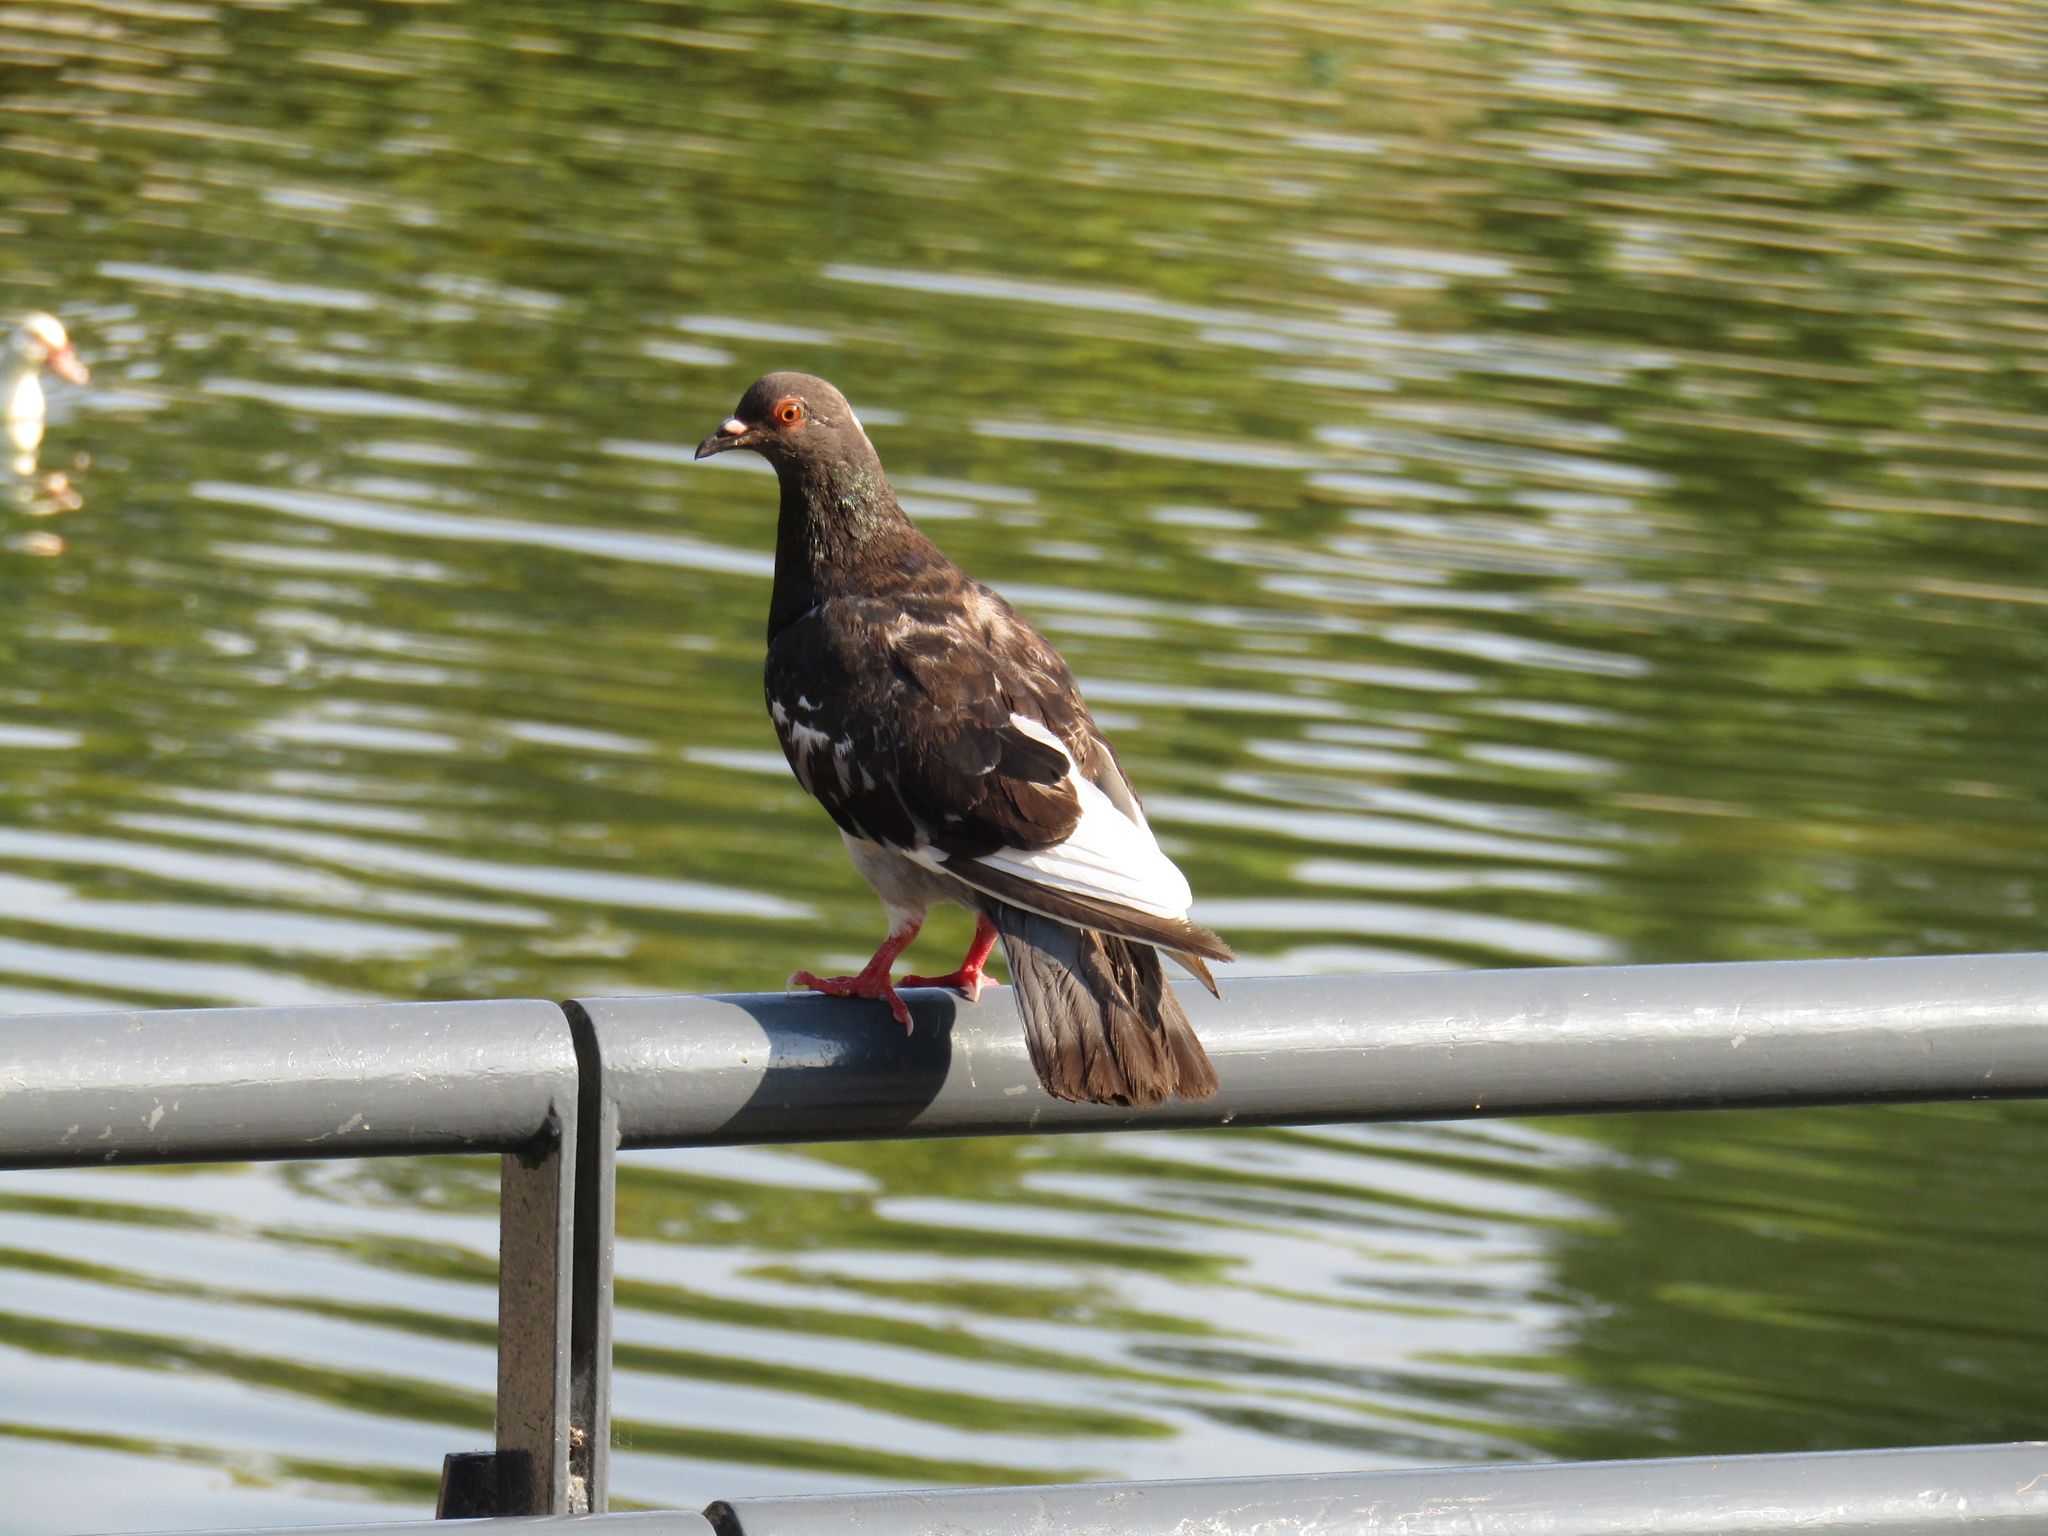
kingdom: Animalia
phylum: Chordata
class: Aves
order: Columbiformes
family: Columbidae
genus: Columba
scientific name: Columba livia
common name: Rock pigeon
